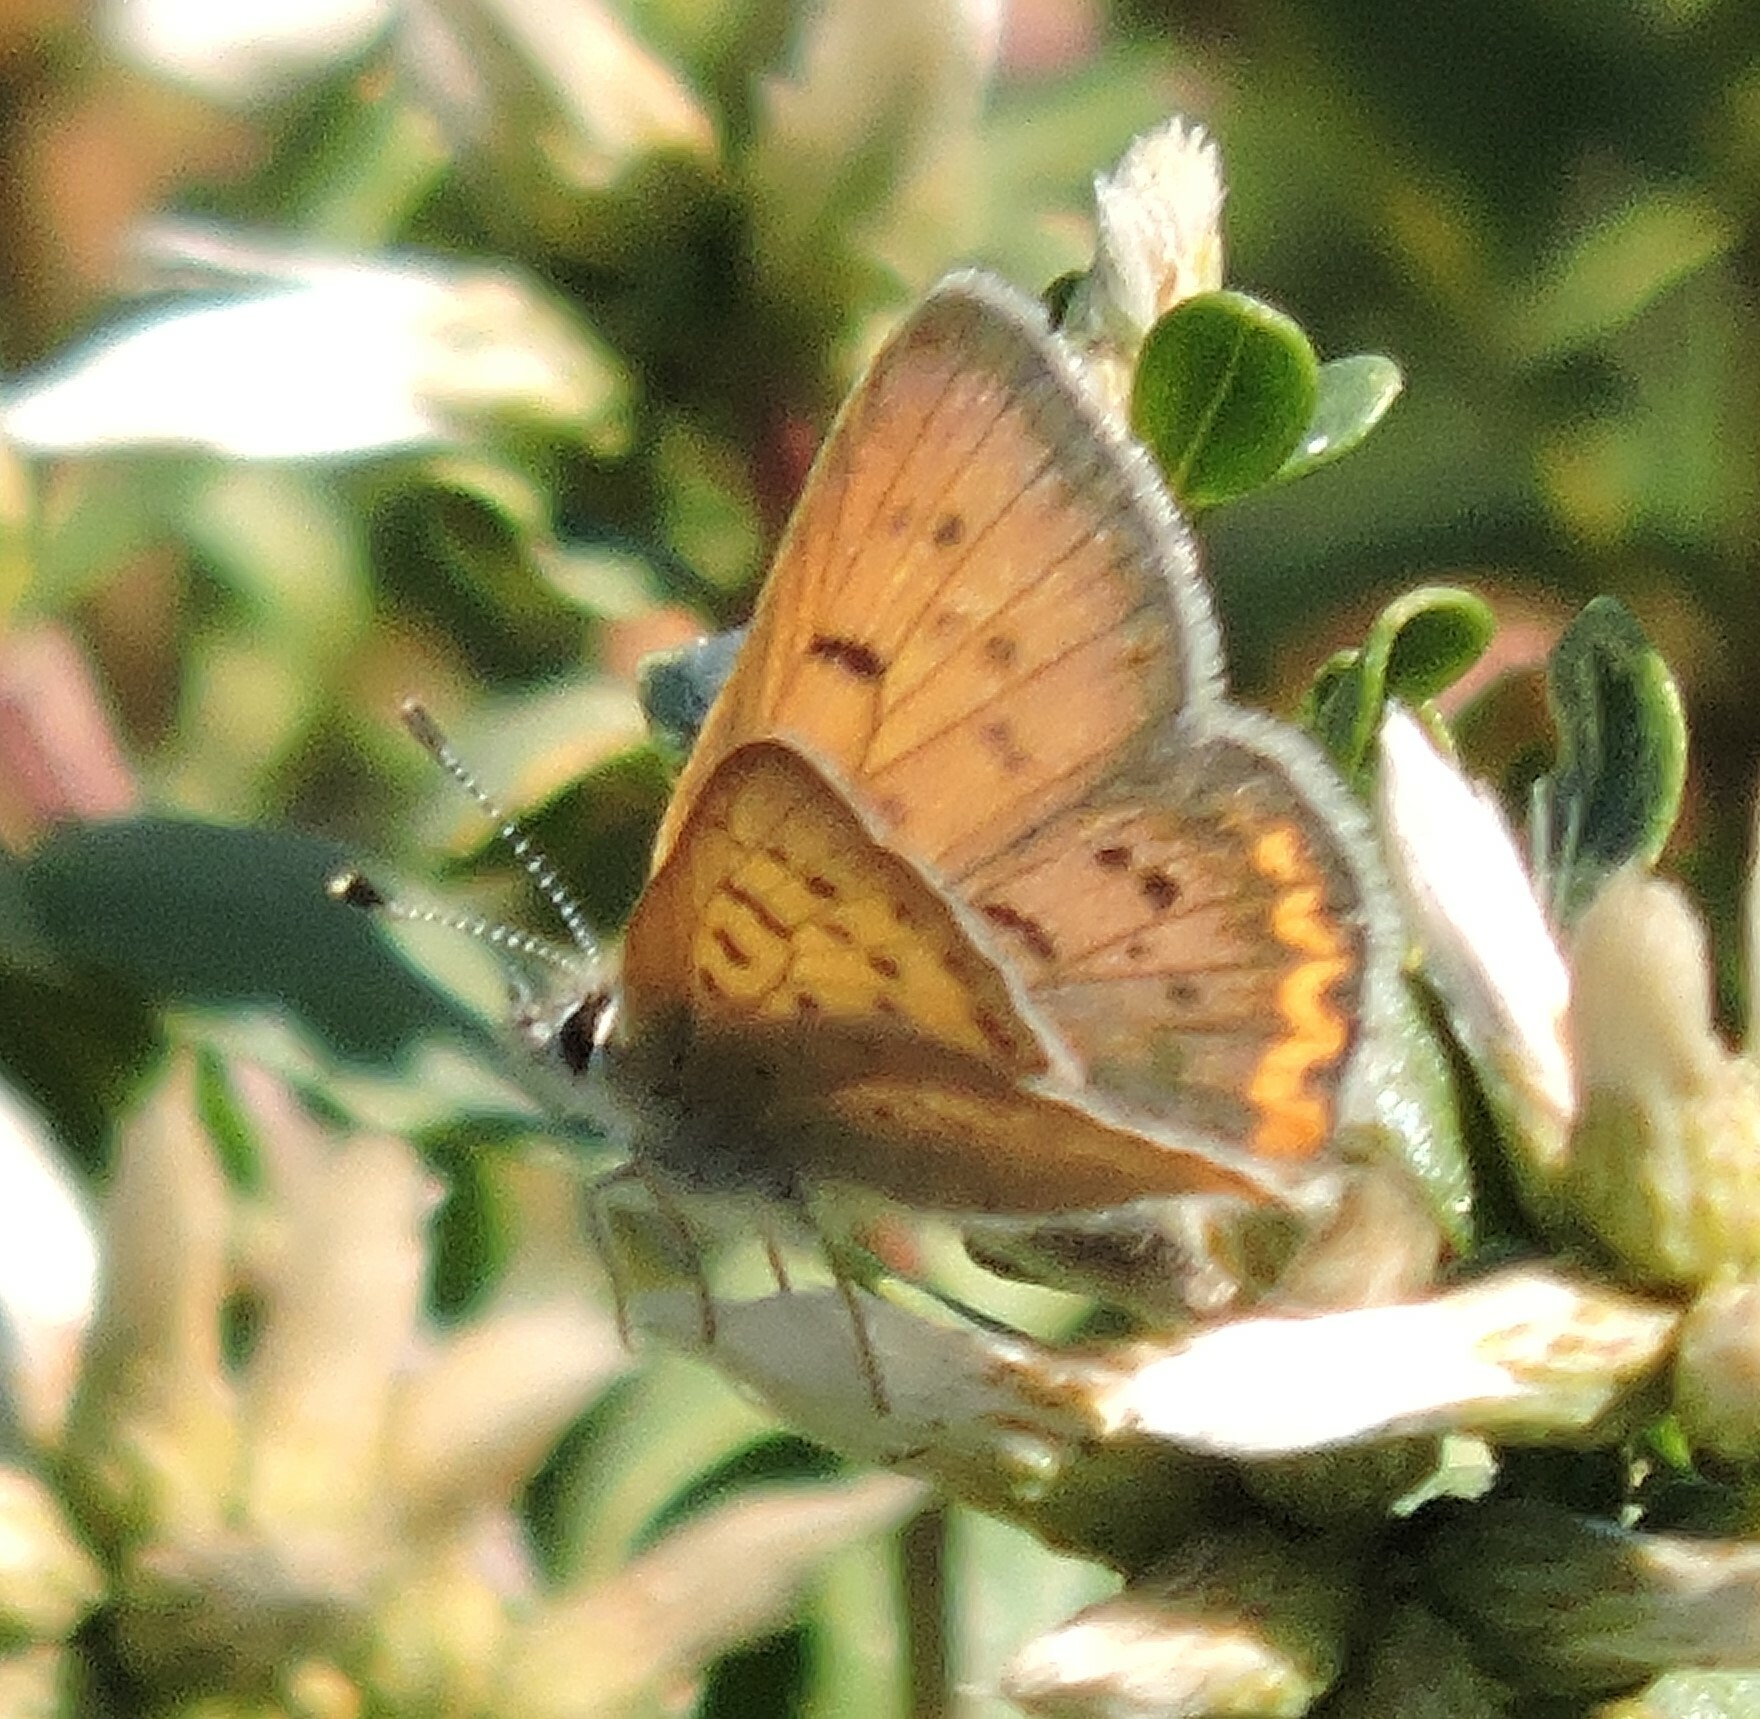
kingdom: Animalia
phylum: Arthropoda
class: Insecta
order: Lepidoptera
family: Lycaenidae
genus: Tharsalea
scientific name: Tharsalea helloides
